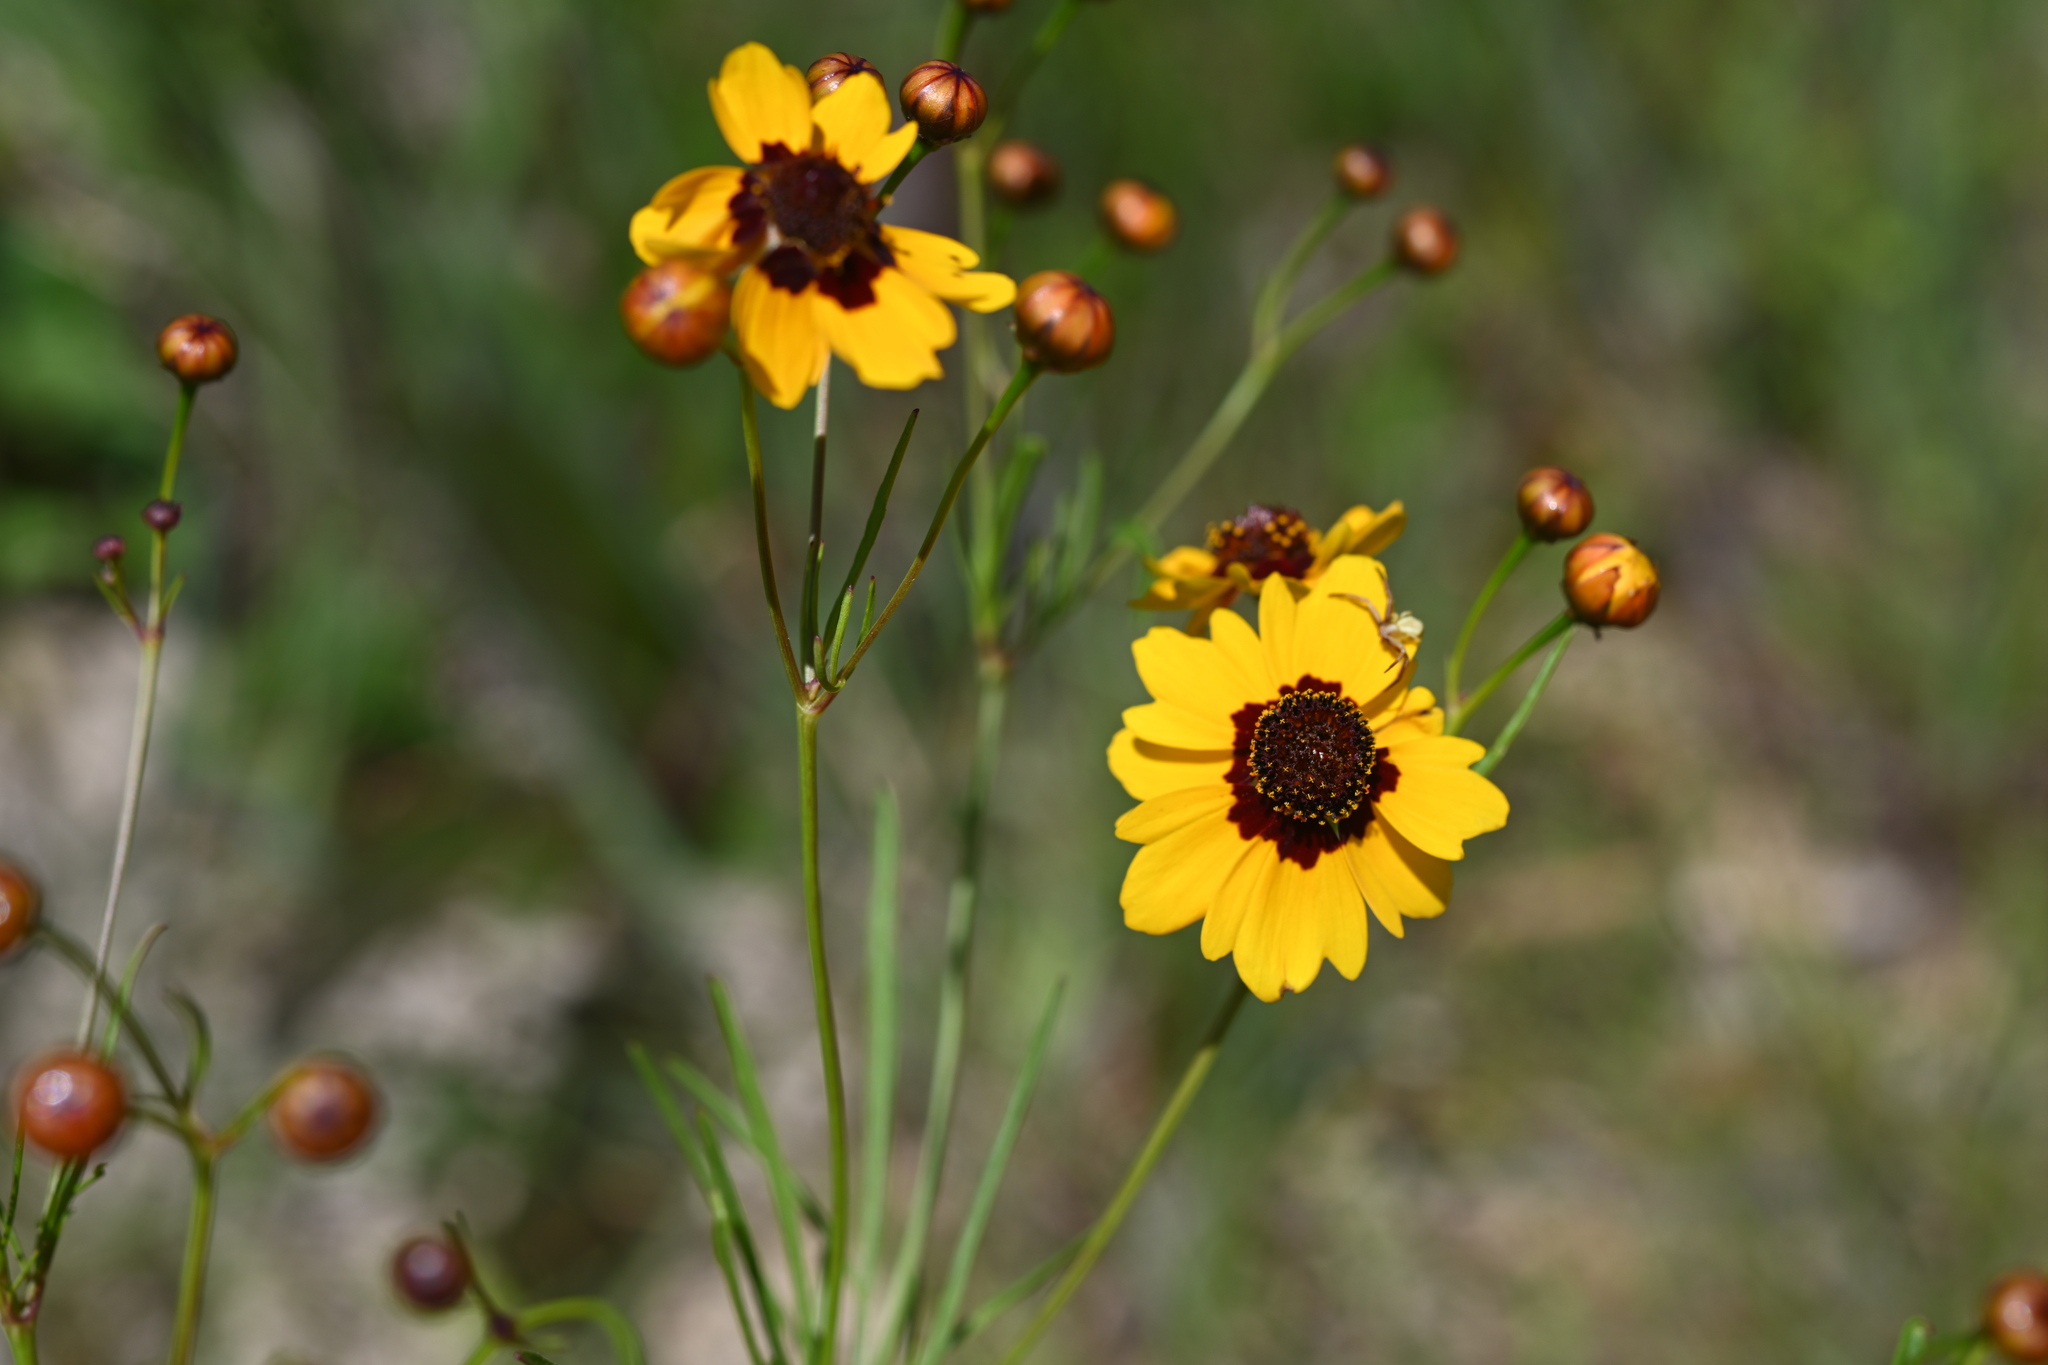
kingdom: Plantae
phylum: Tracheophyta
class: Magnoliopsida
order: Asterales
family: Asteraceae
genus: Coreopsis
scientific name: Coreopsis tinctoria
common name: Garden tickseed
